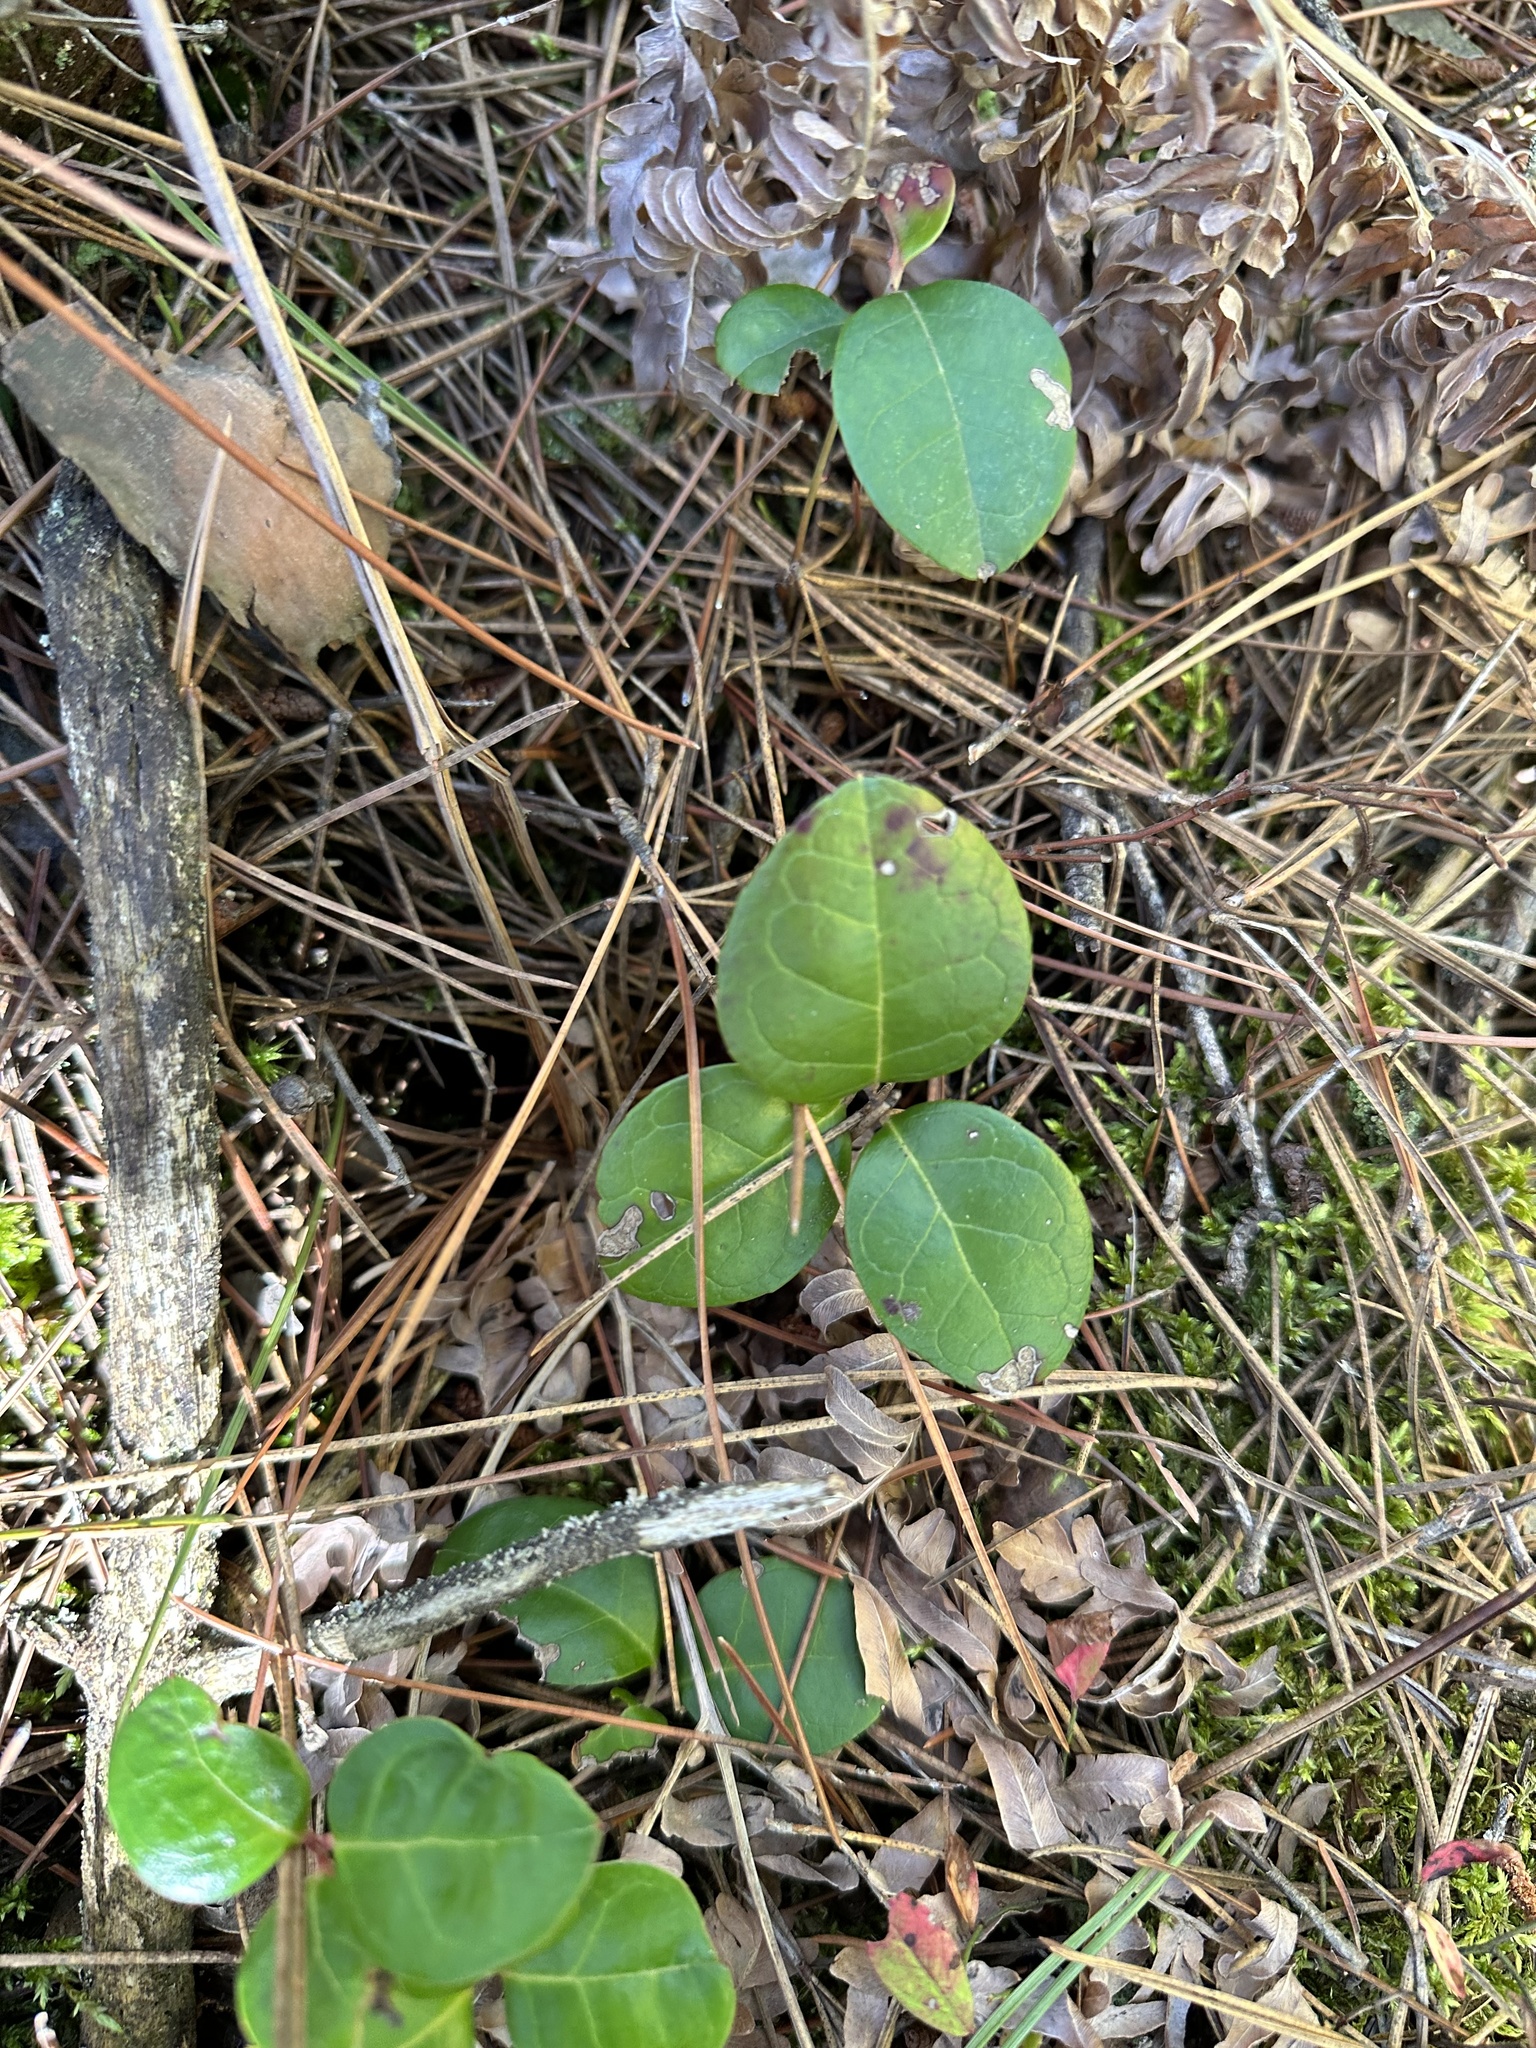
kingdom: Plantae
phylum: Tracheophyta
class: Magnoliopsida
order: Ericales
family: Ericaceae
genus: Gaultheria
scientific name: Gaultheria procumbens
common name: Checkerberry
